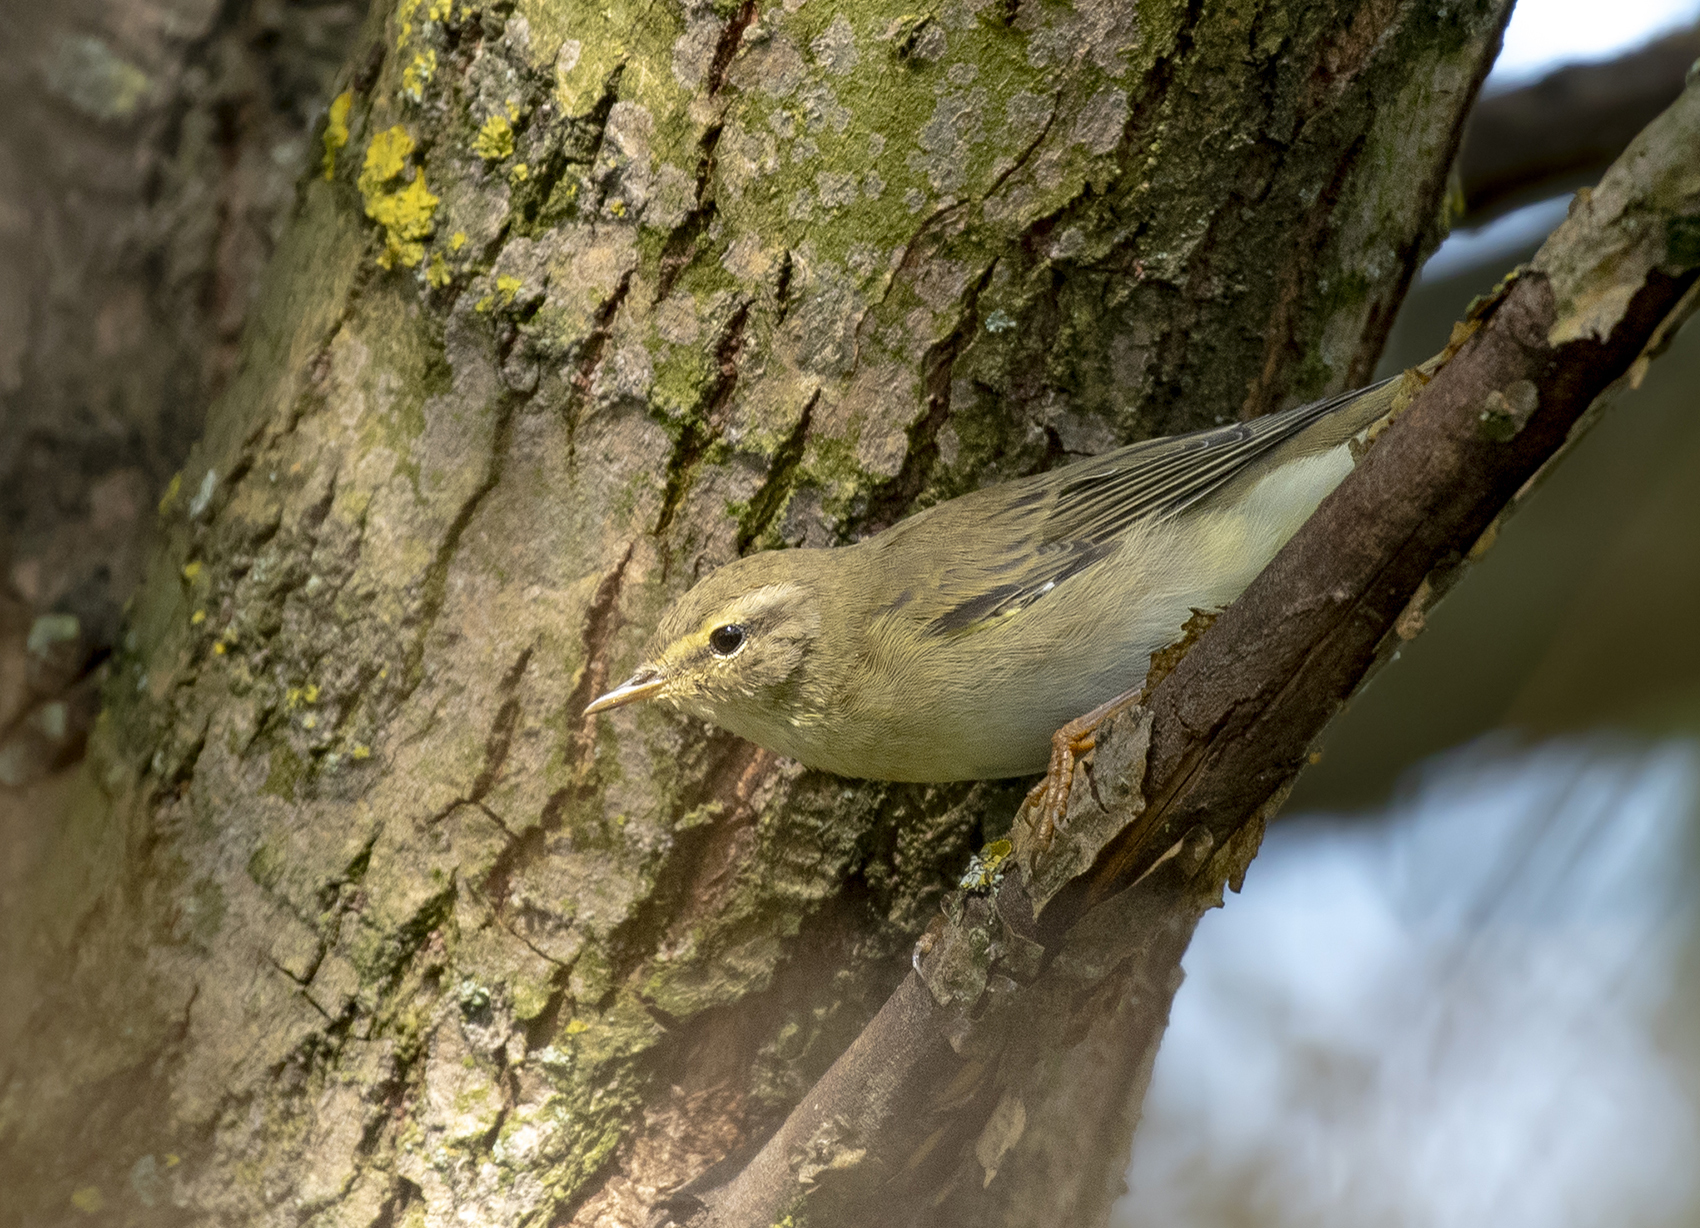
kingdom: Animalia
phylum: Chordata
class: Aves
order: Passeriformes
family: Phylloscopidae
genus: Phylloscopus
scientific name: Phylloscopus trochilus
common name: Willow warbler
